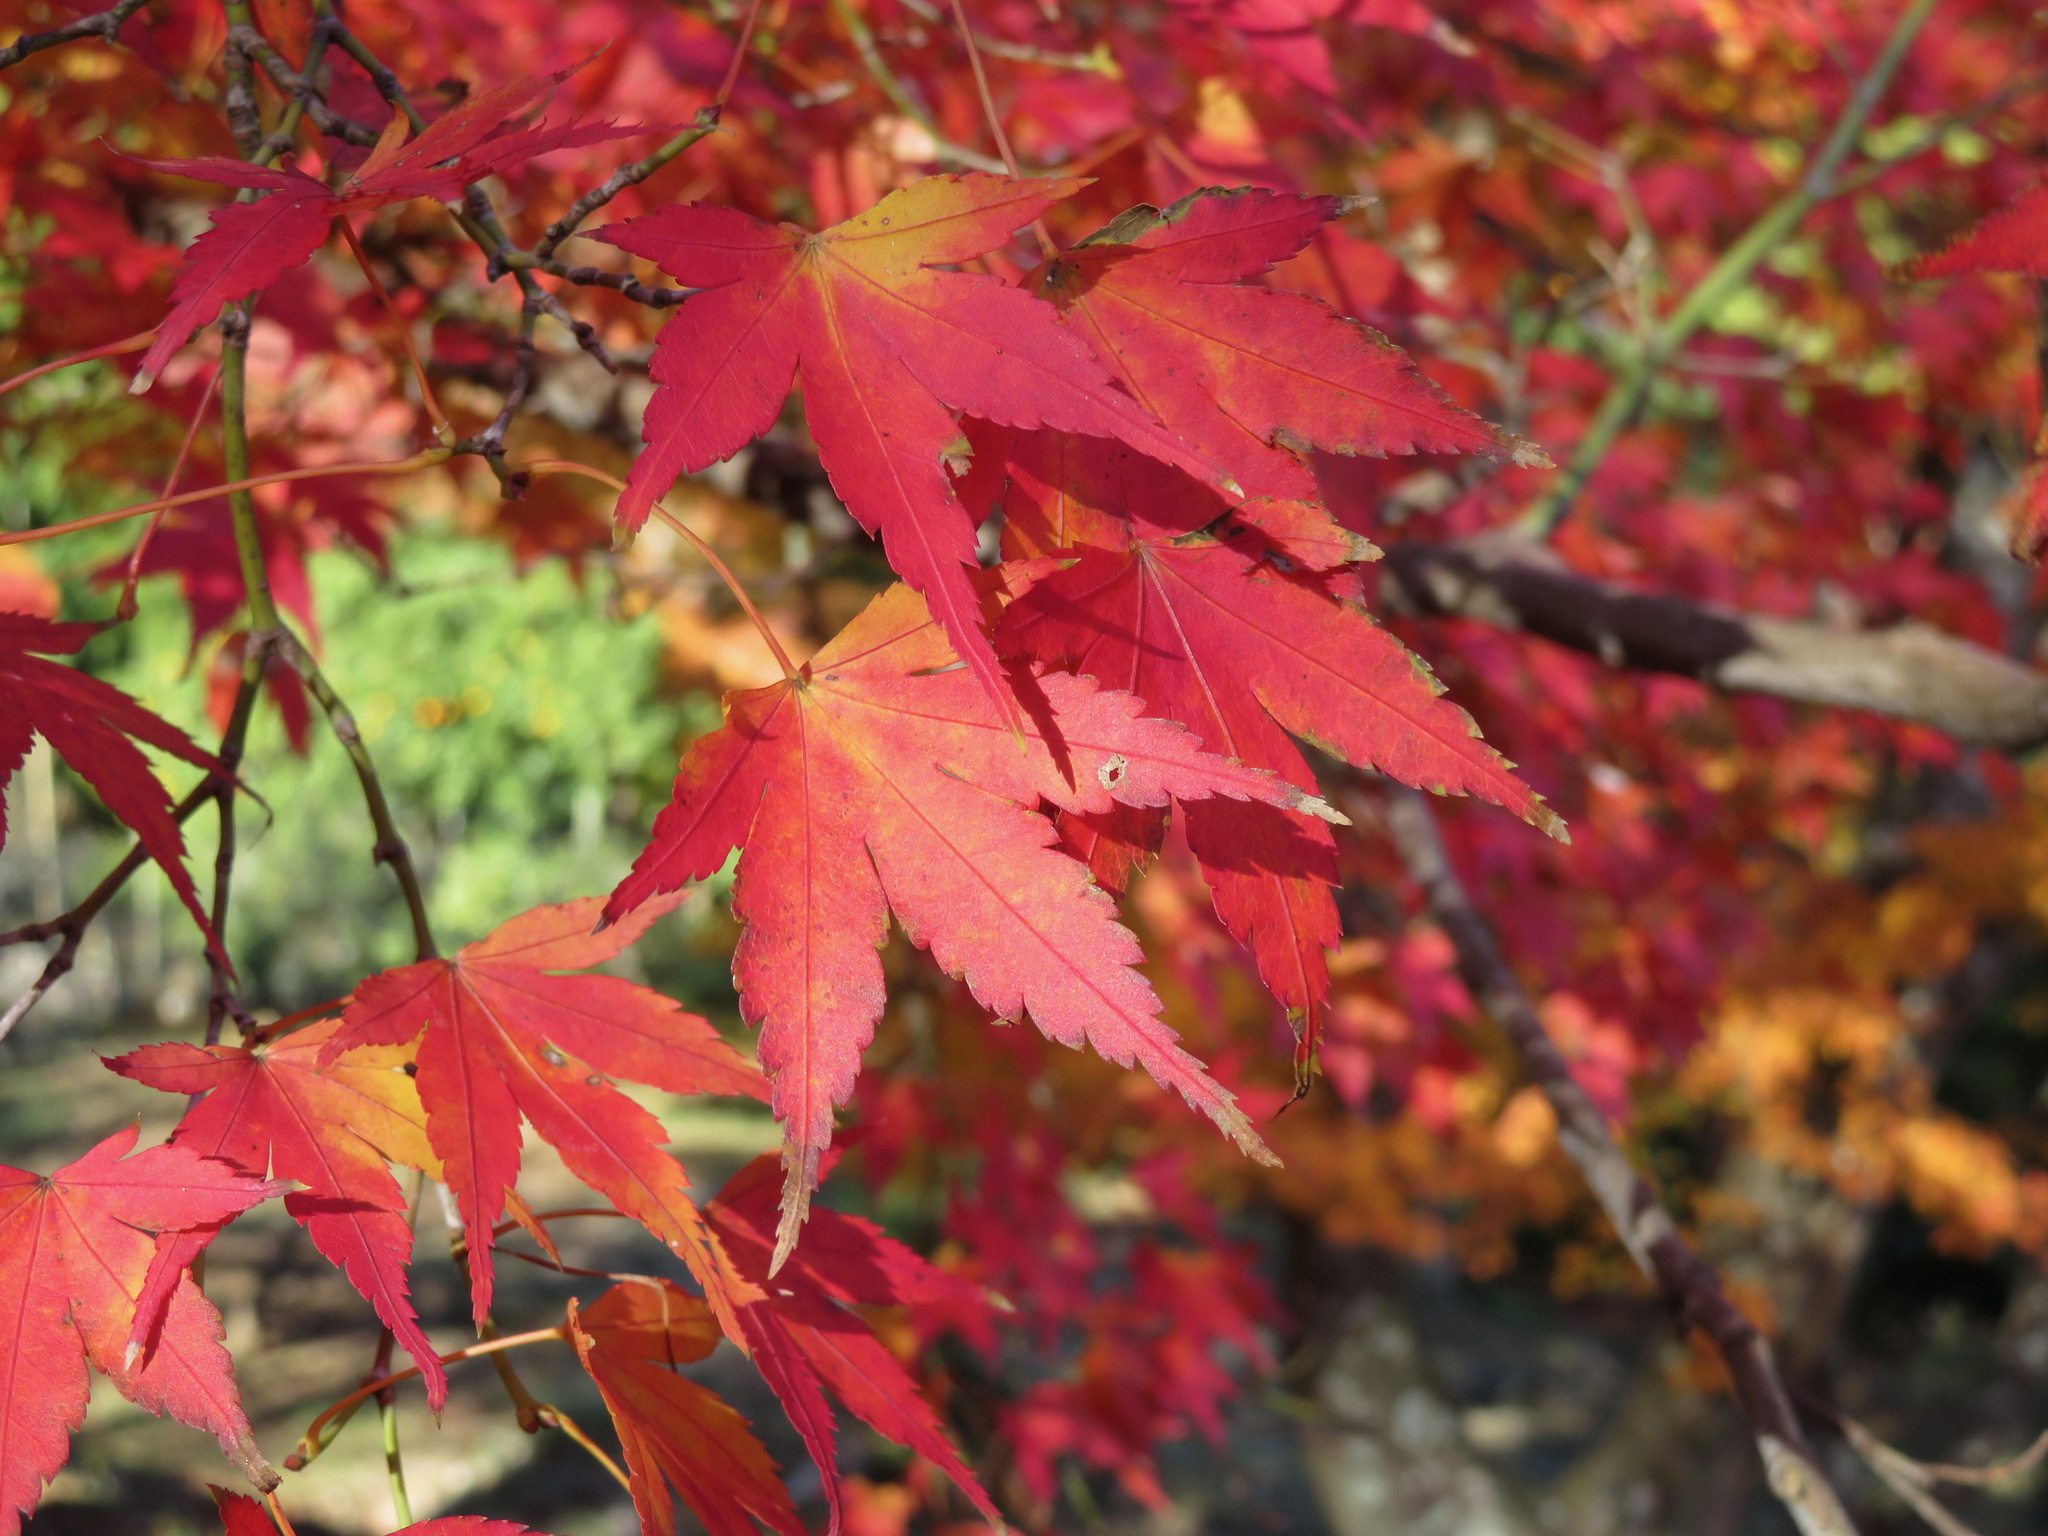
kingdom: Plantae
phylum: Tracheophyta
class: Magnoliopsida
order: Sapindales
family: Sapindaceae
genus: Acer
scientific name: Acer palmatum
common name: Japanese maple
